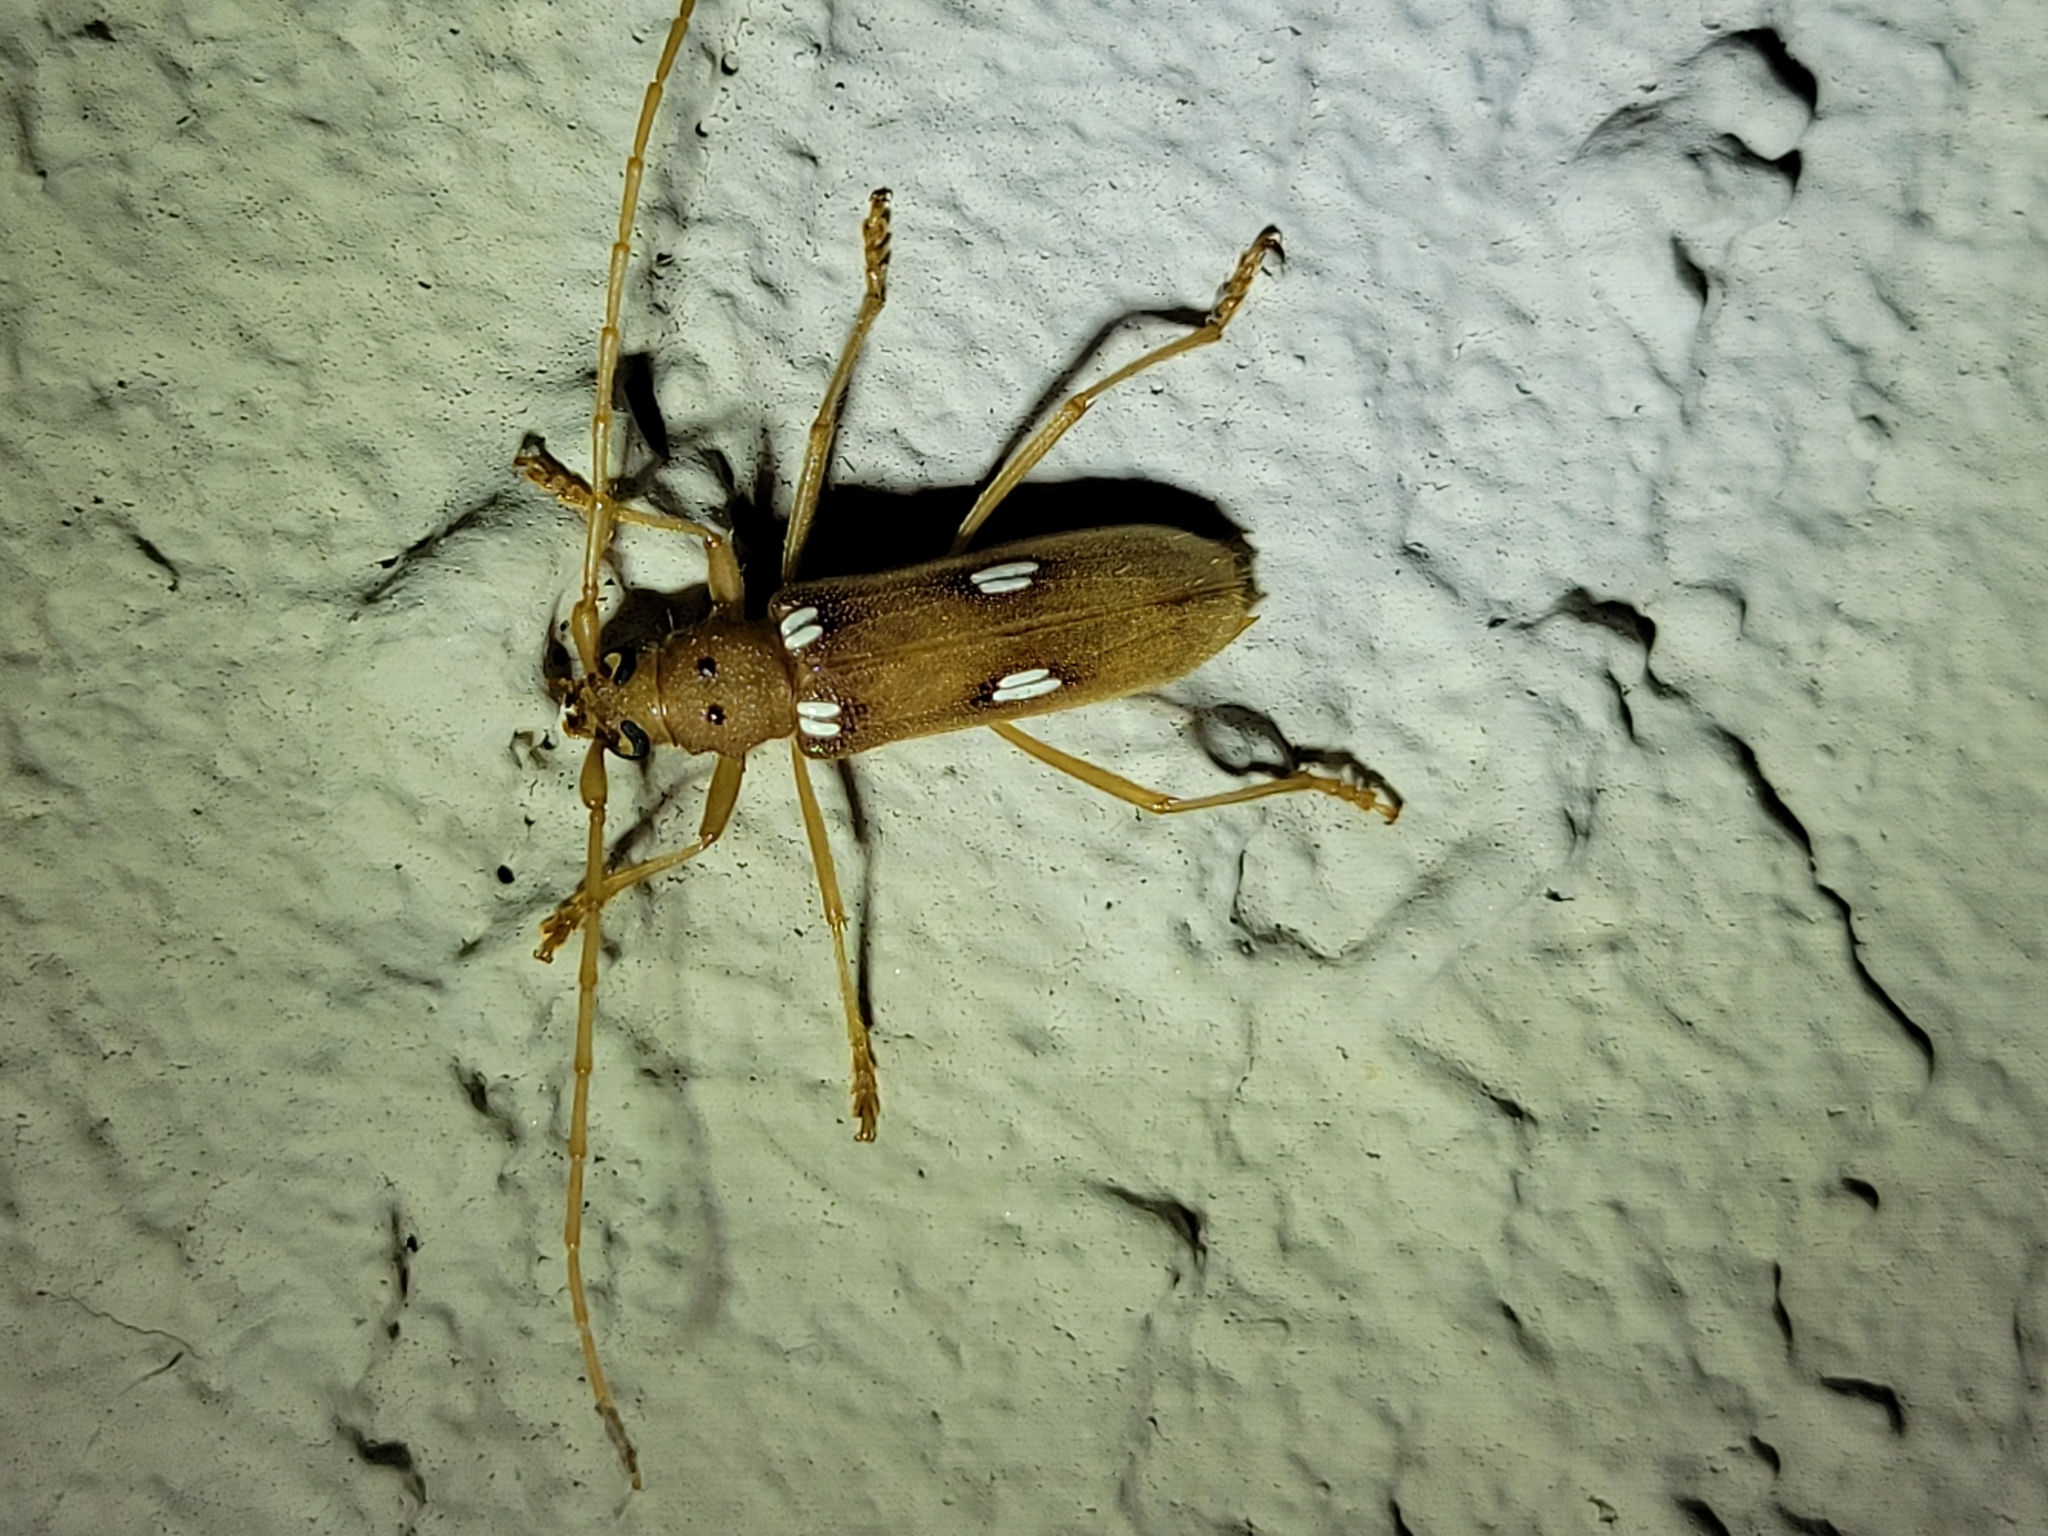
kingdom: Animalia
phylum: Arthropoda
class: Insecta
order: Coleoptera
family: Cerambycidae
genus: Eburia
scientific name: Eburia quadrigeminata
